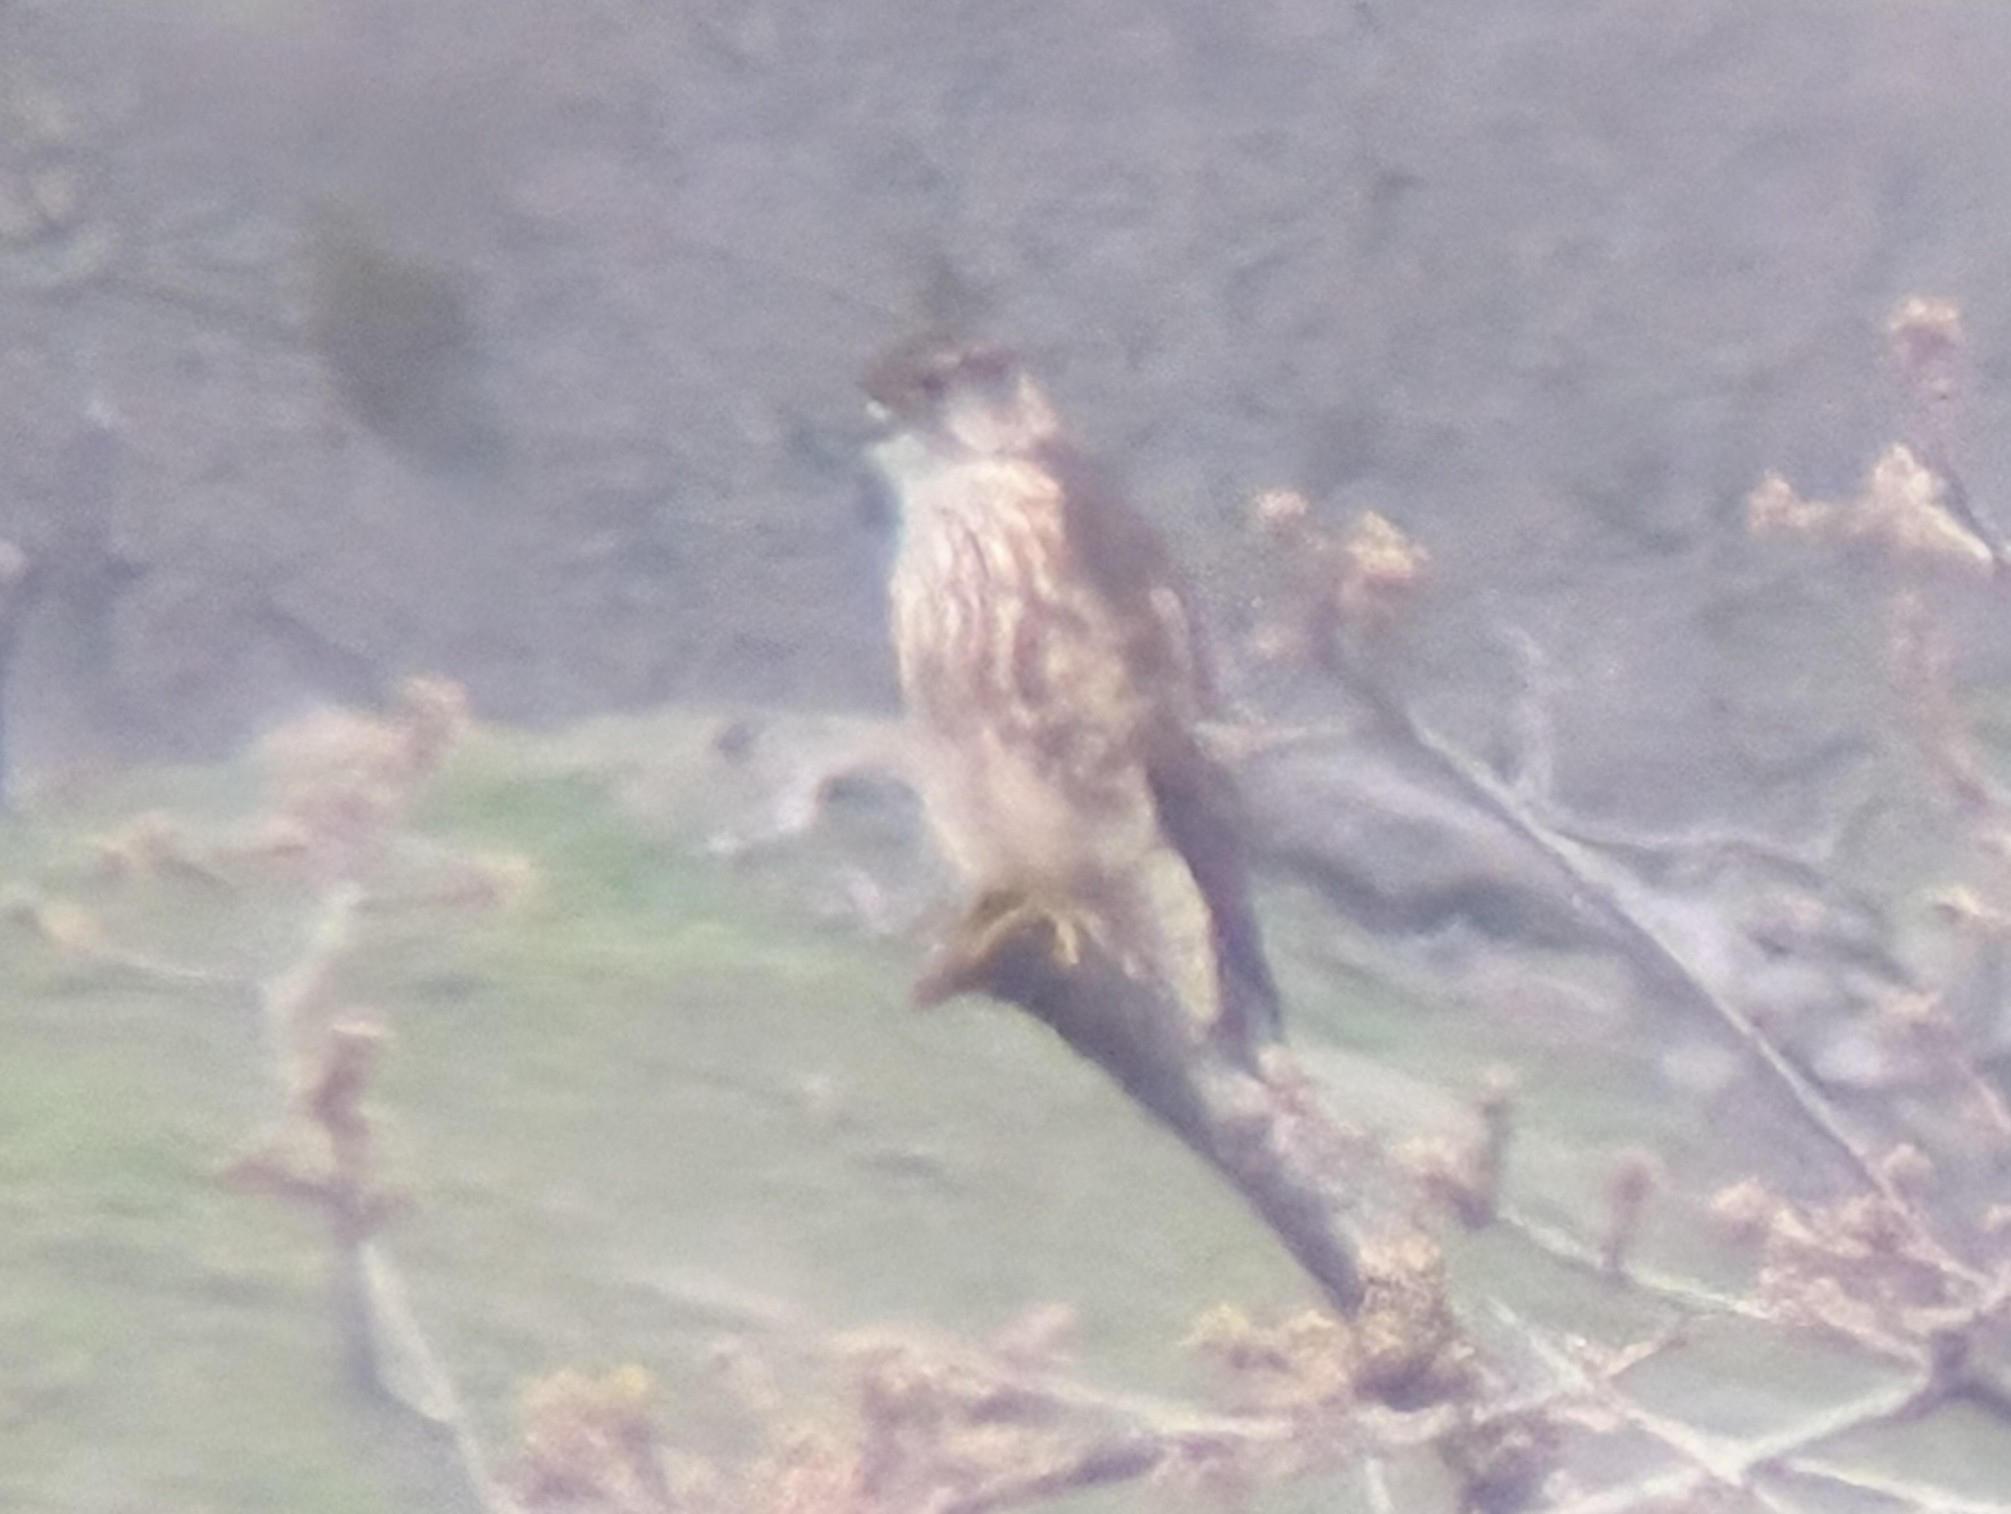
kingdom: Animalia
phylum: Chordata
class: Aves
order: Falconiformes
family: Falconidae
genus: Falco
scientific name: Falco columbarius
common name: Merlin
